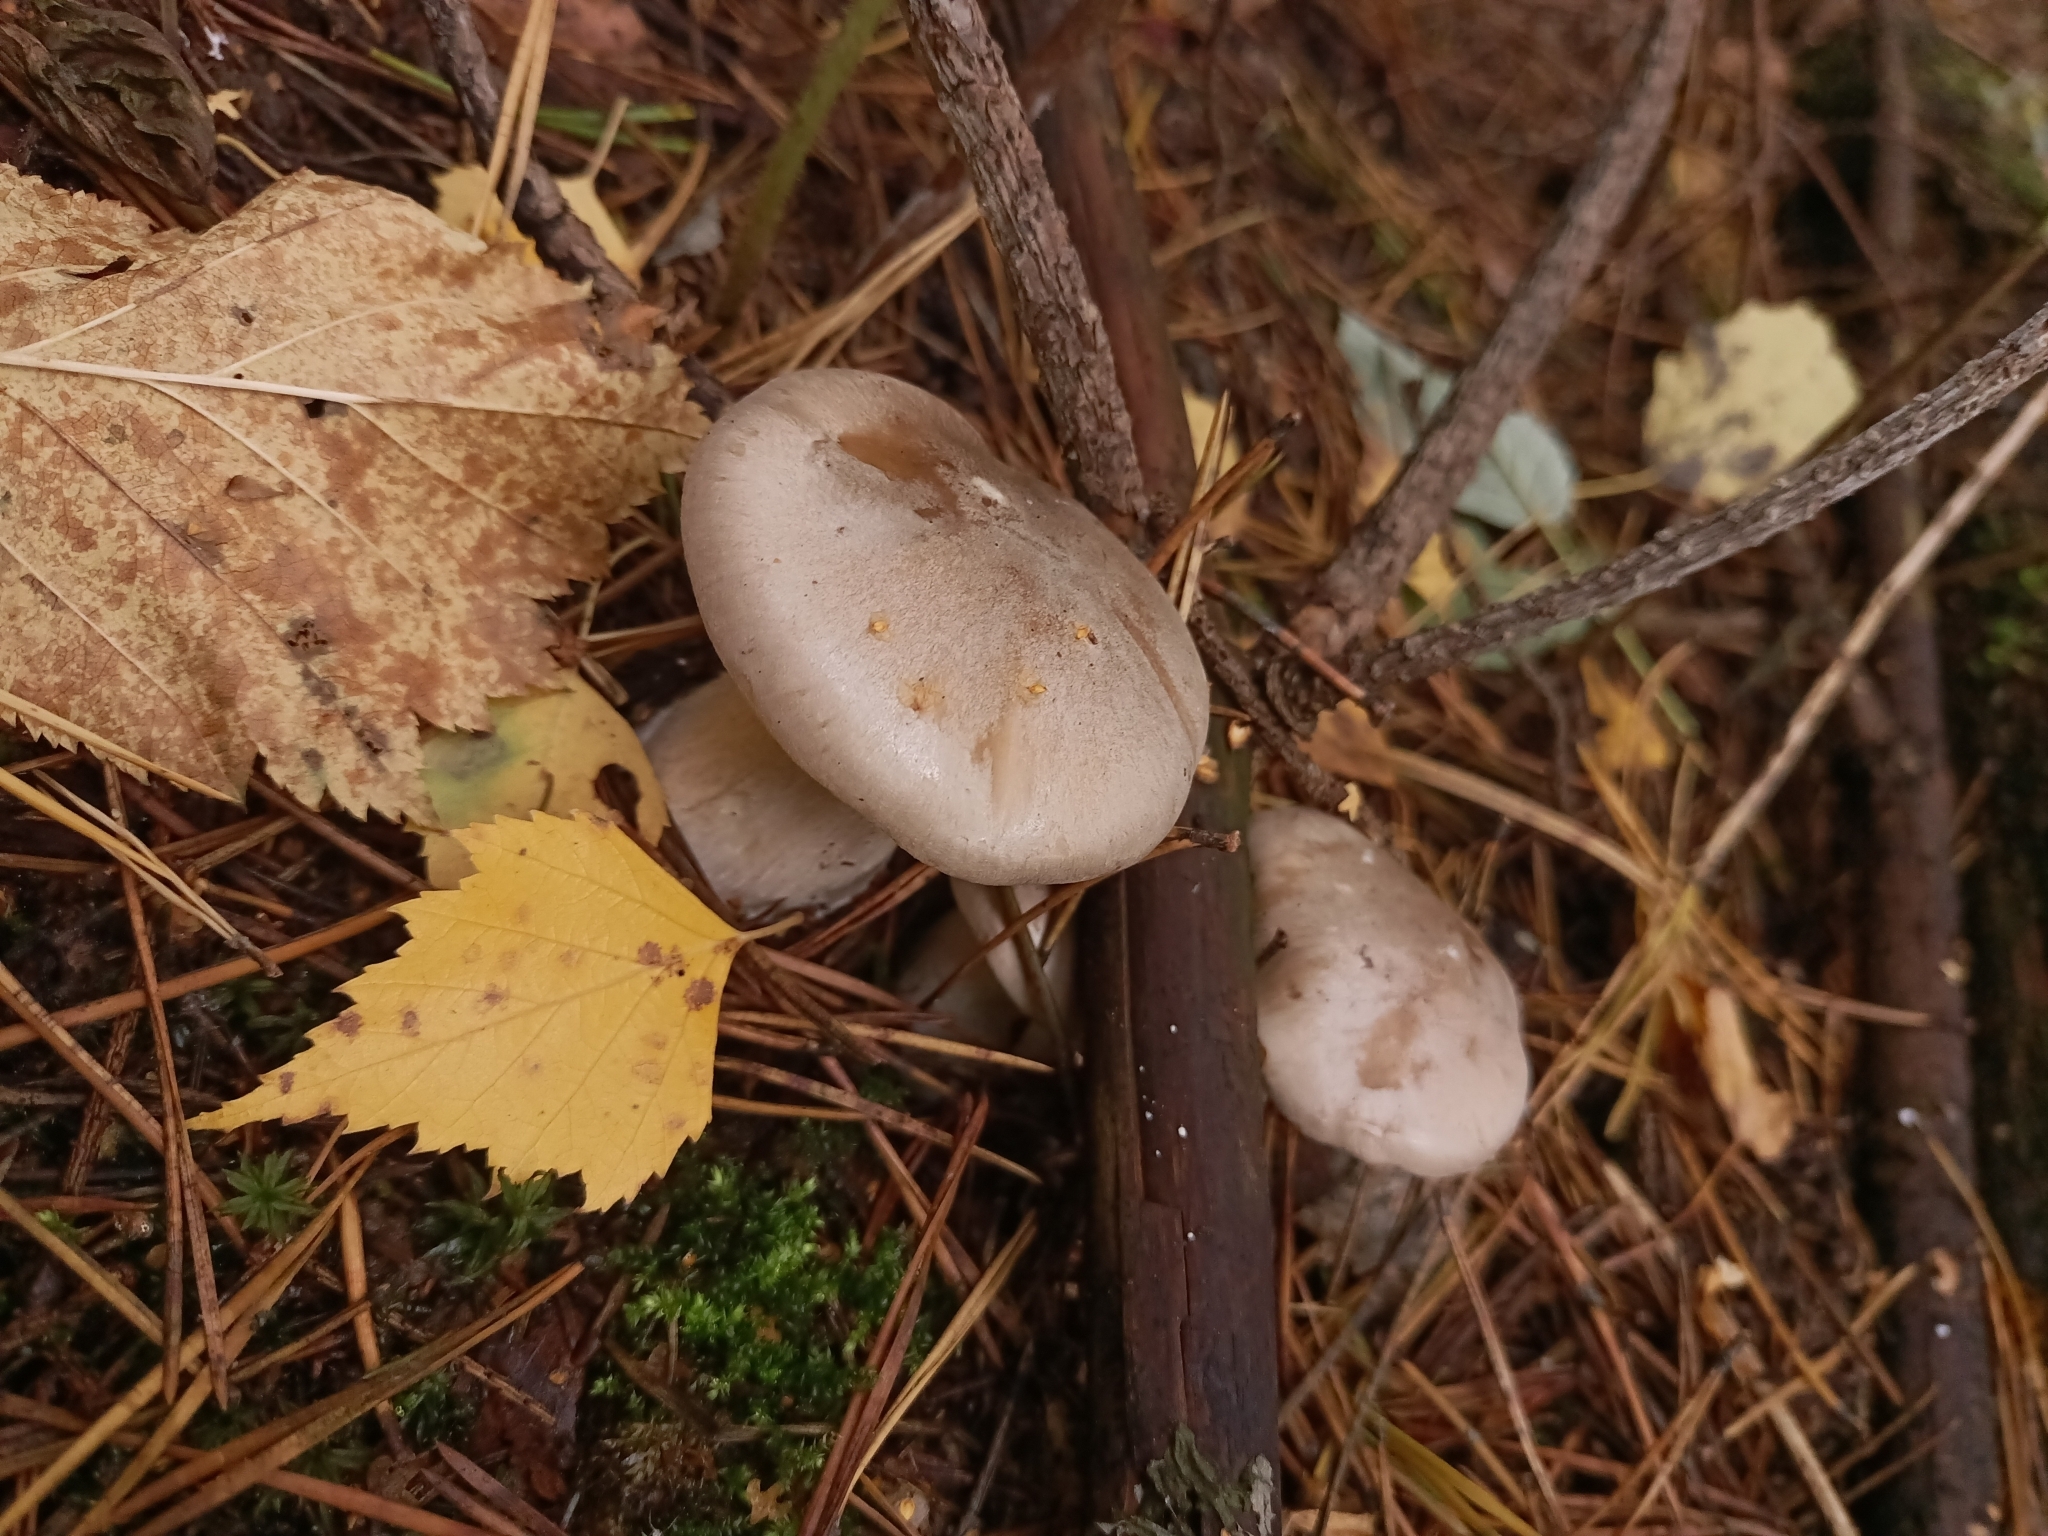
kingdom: Fungi
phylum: Basidiomycota
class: Agaricomycetes
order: Agaricales
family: Tricholomataceae
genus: Clitocybe
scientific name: Clitocybe nebularis
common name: Clouded agaric
